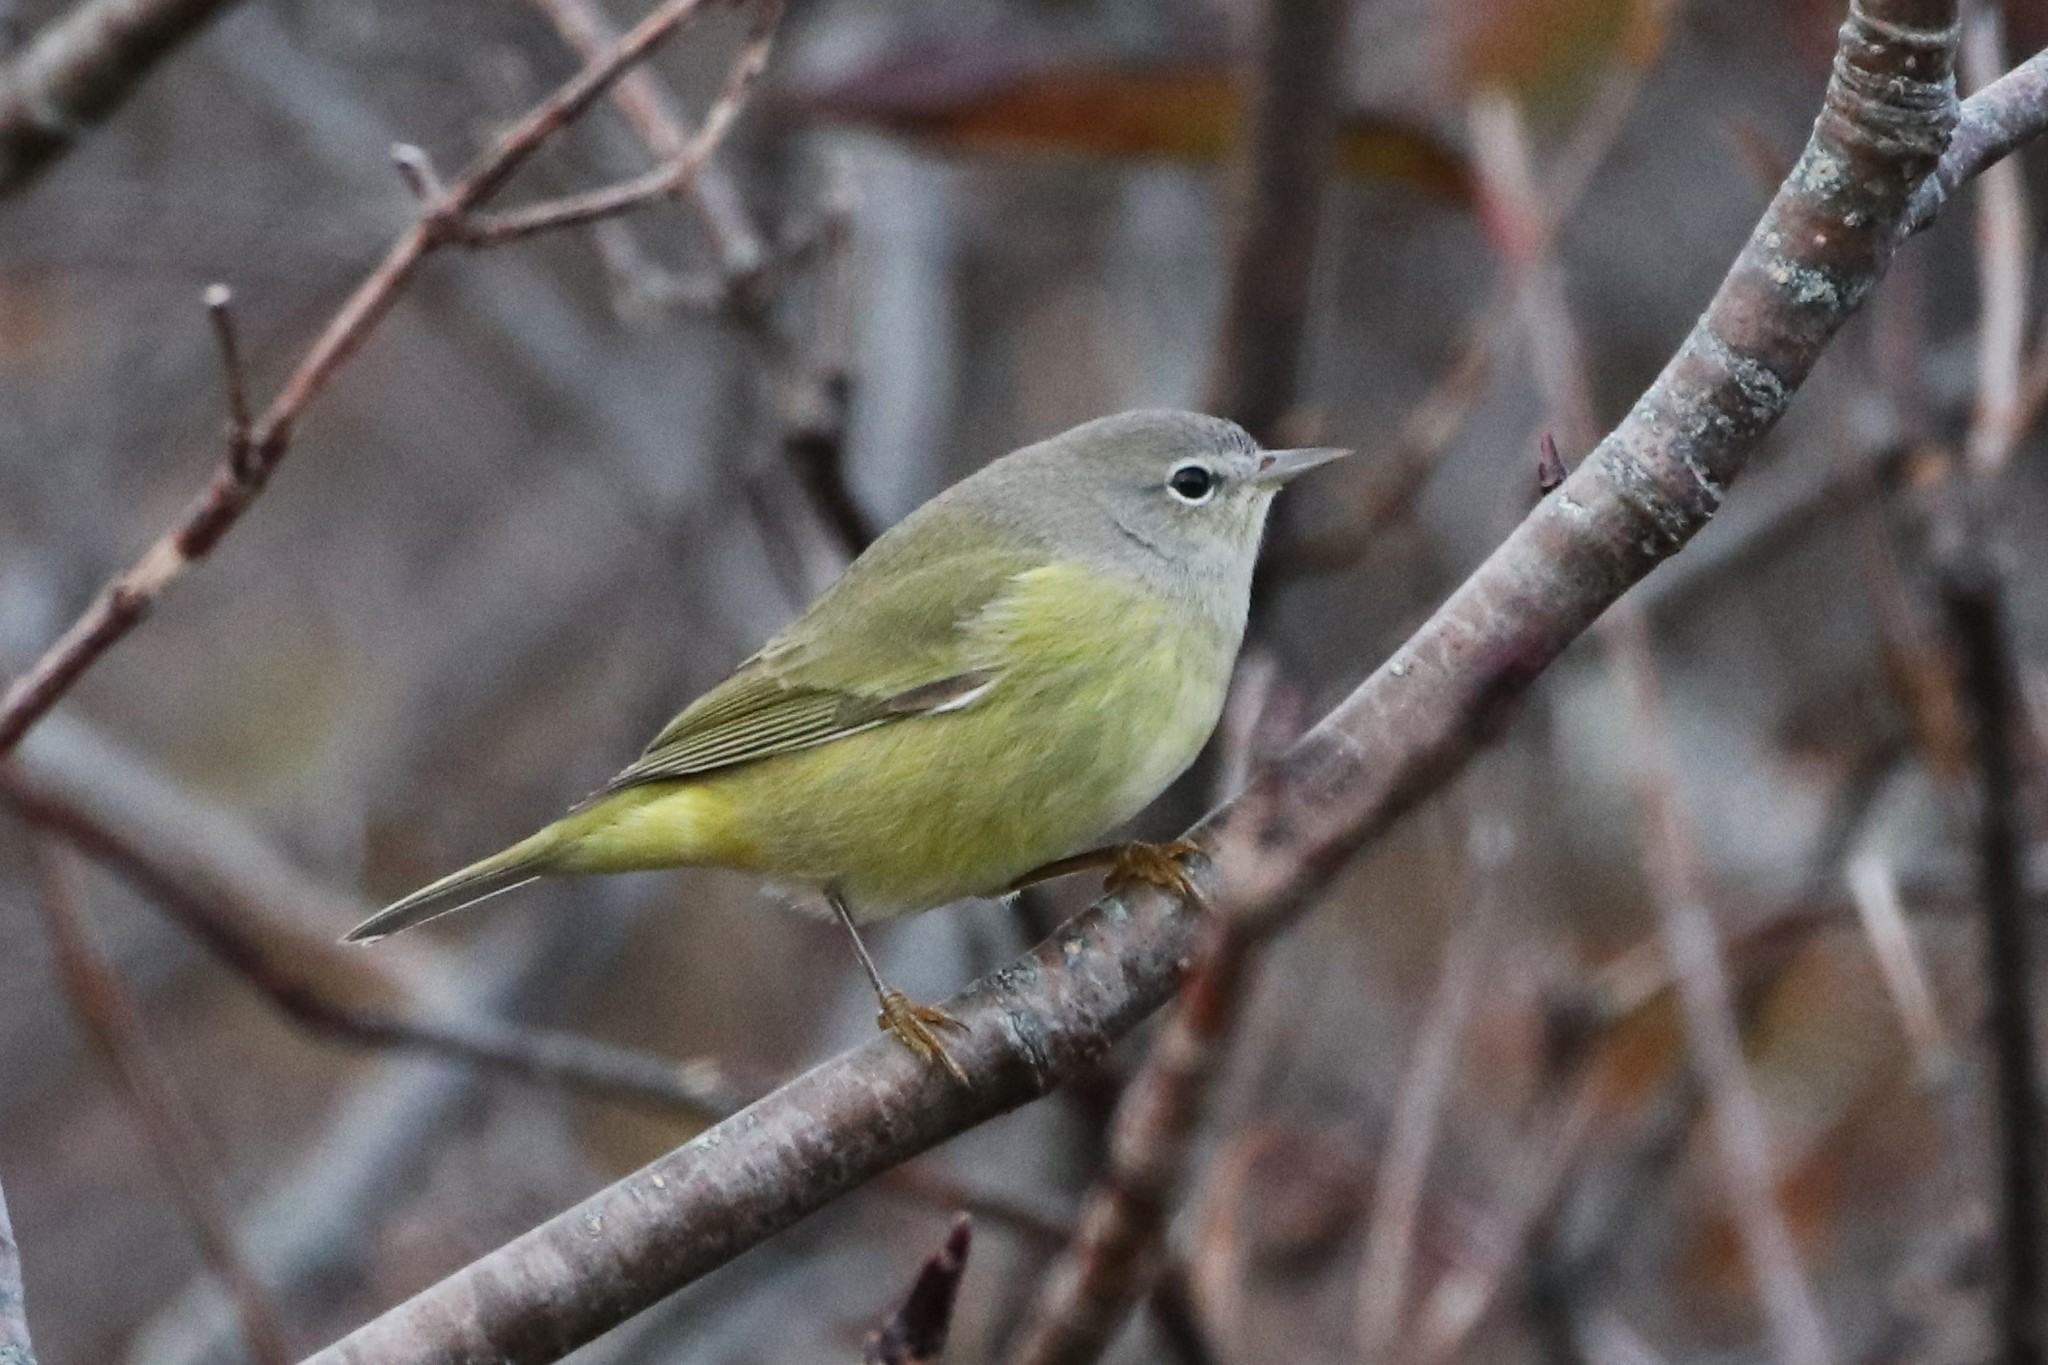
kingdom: Animalia
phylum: Chordata
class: Aves
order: Passeriformes
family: Parulidae
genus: Leiothlypis
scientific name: Leiothlypis celata
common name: Orange-crowned warbler
